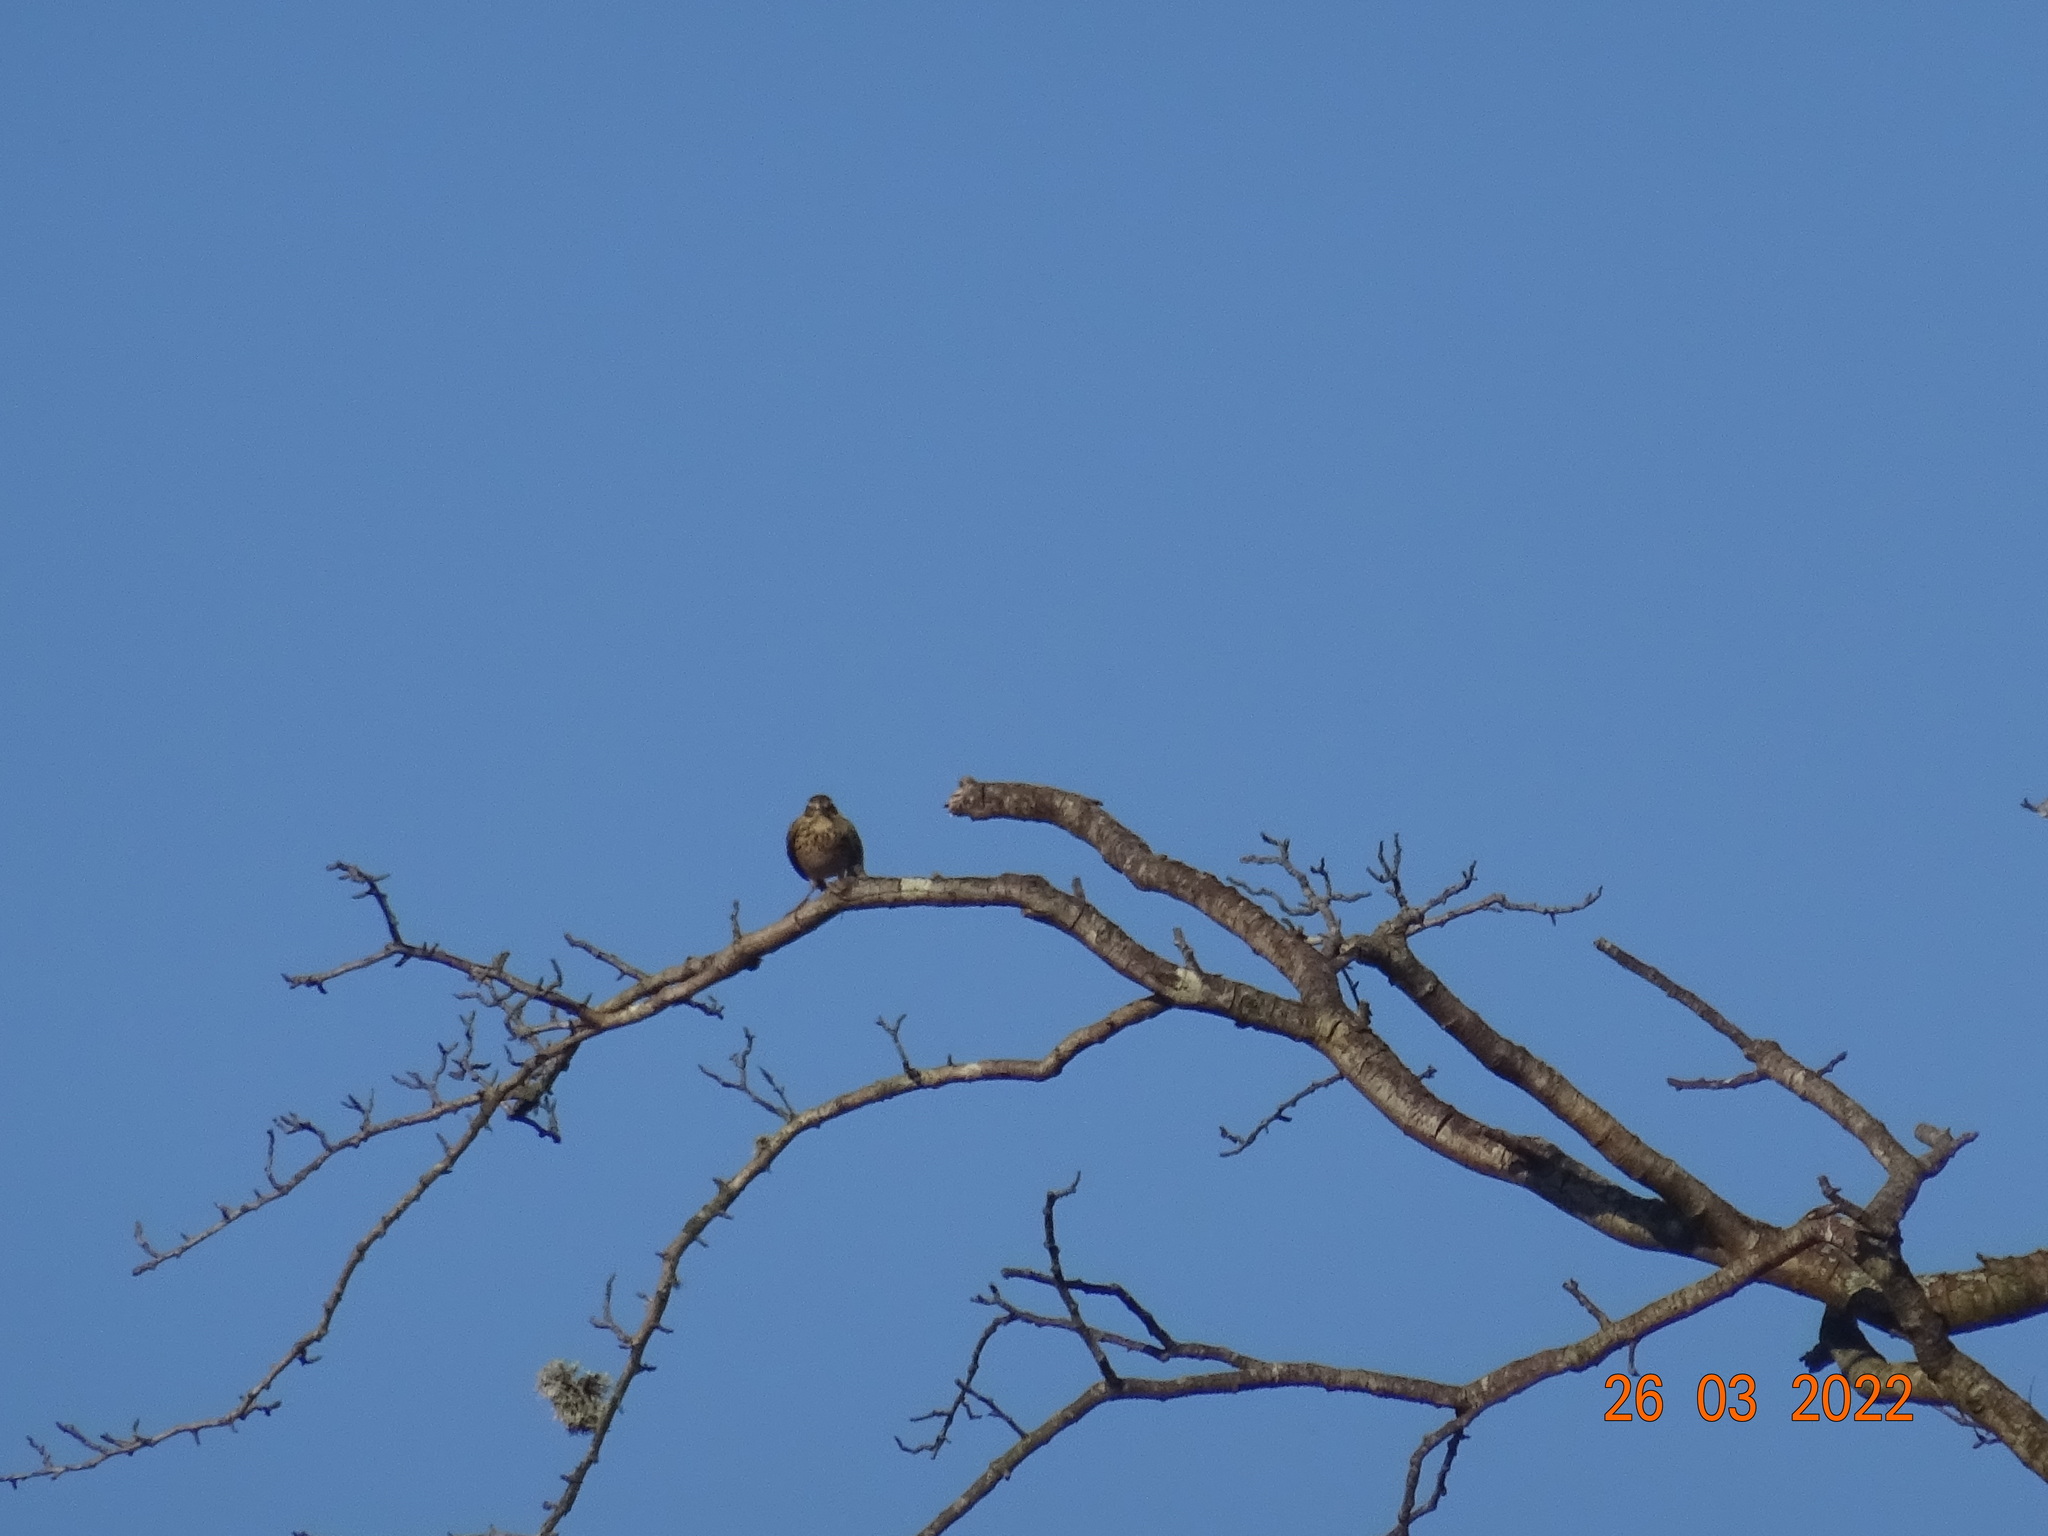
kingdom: Animalia
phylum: Chordata
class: Aves
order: Passeriformes
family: Turdidae
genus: Turdus
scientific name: Turdus iliacus
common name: Redwing
